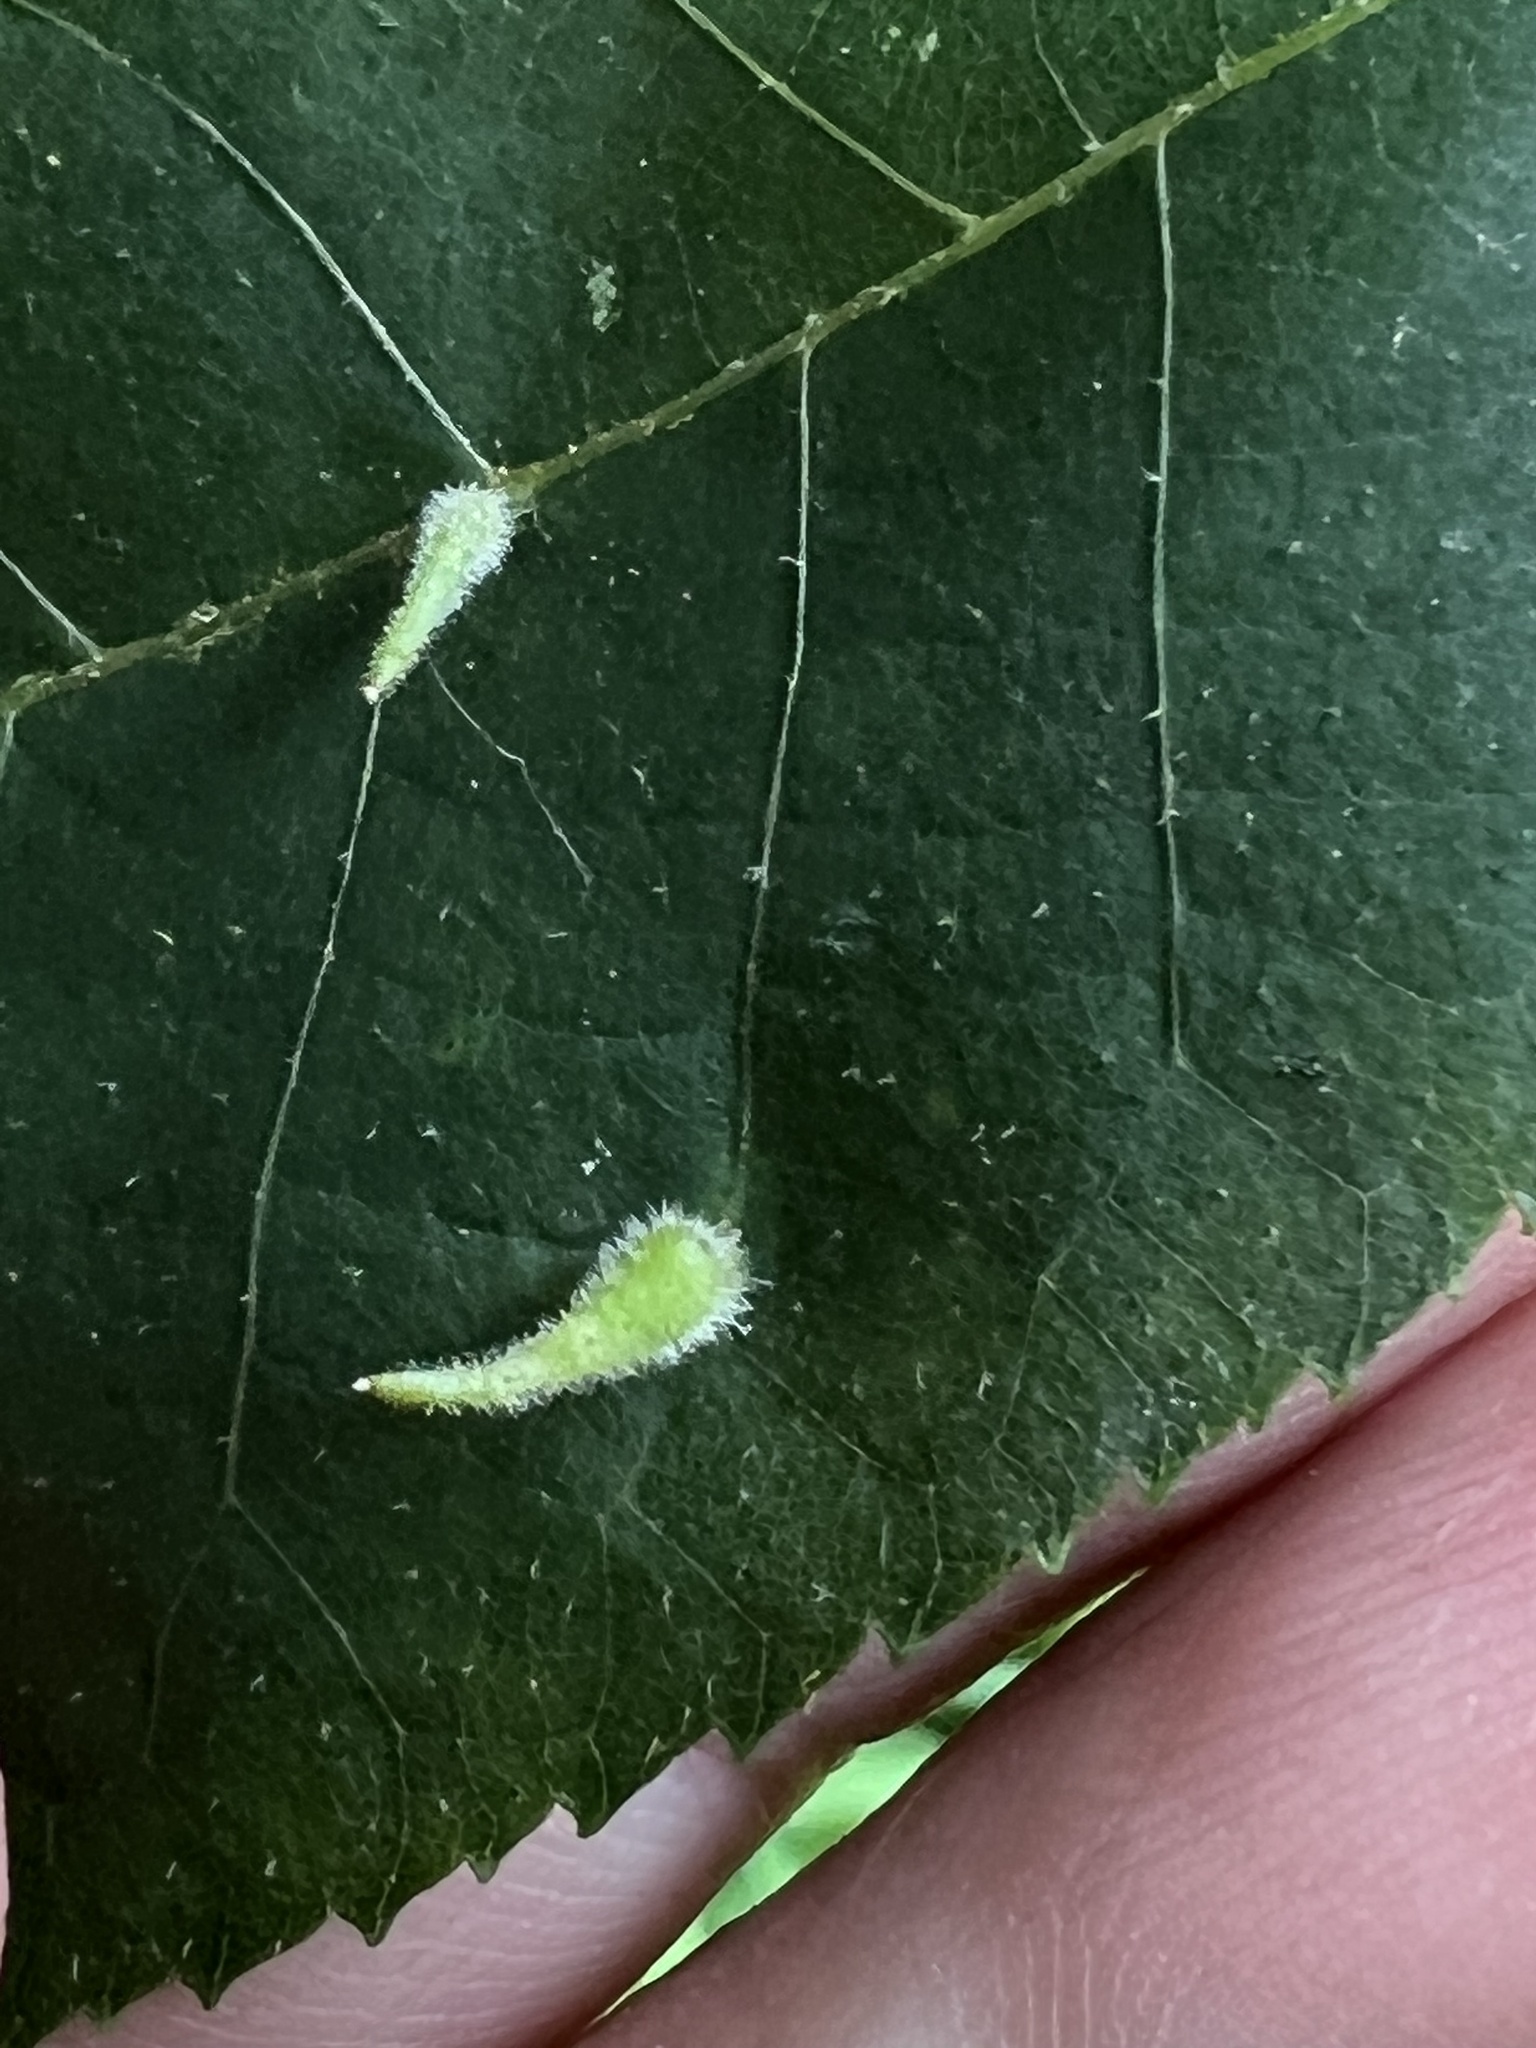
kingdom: Animalia
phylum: Arthropoda
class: Insecta
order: Diptera
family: Cecidomyiidae
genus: Caryomyia
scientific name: Caryomyia spinulosa
